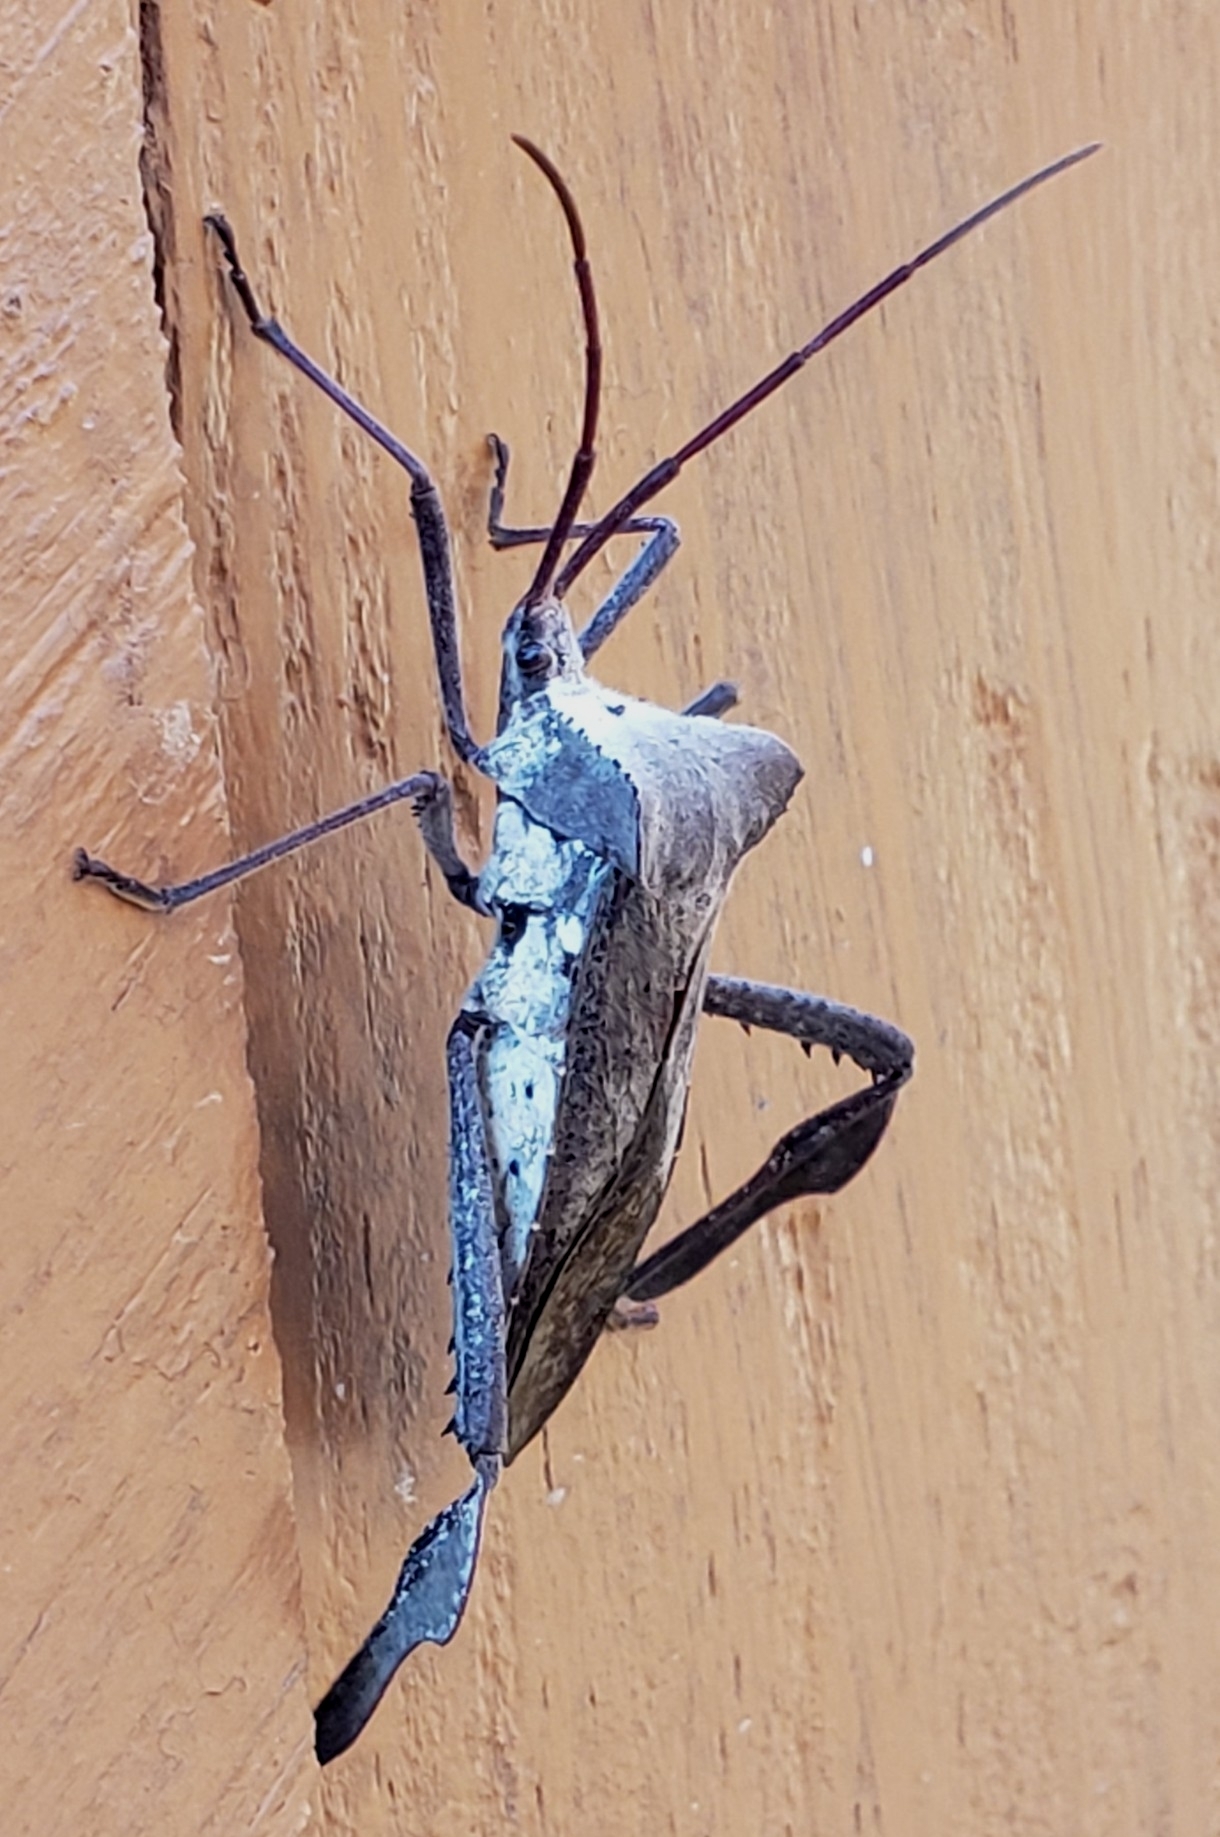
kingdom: Animalia
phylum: Arthropoda
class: Insecta
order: Hemiptera
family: Coreidae
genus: Acanthocephala
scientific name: Acanthocephala declivis
